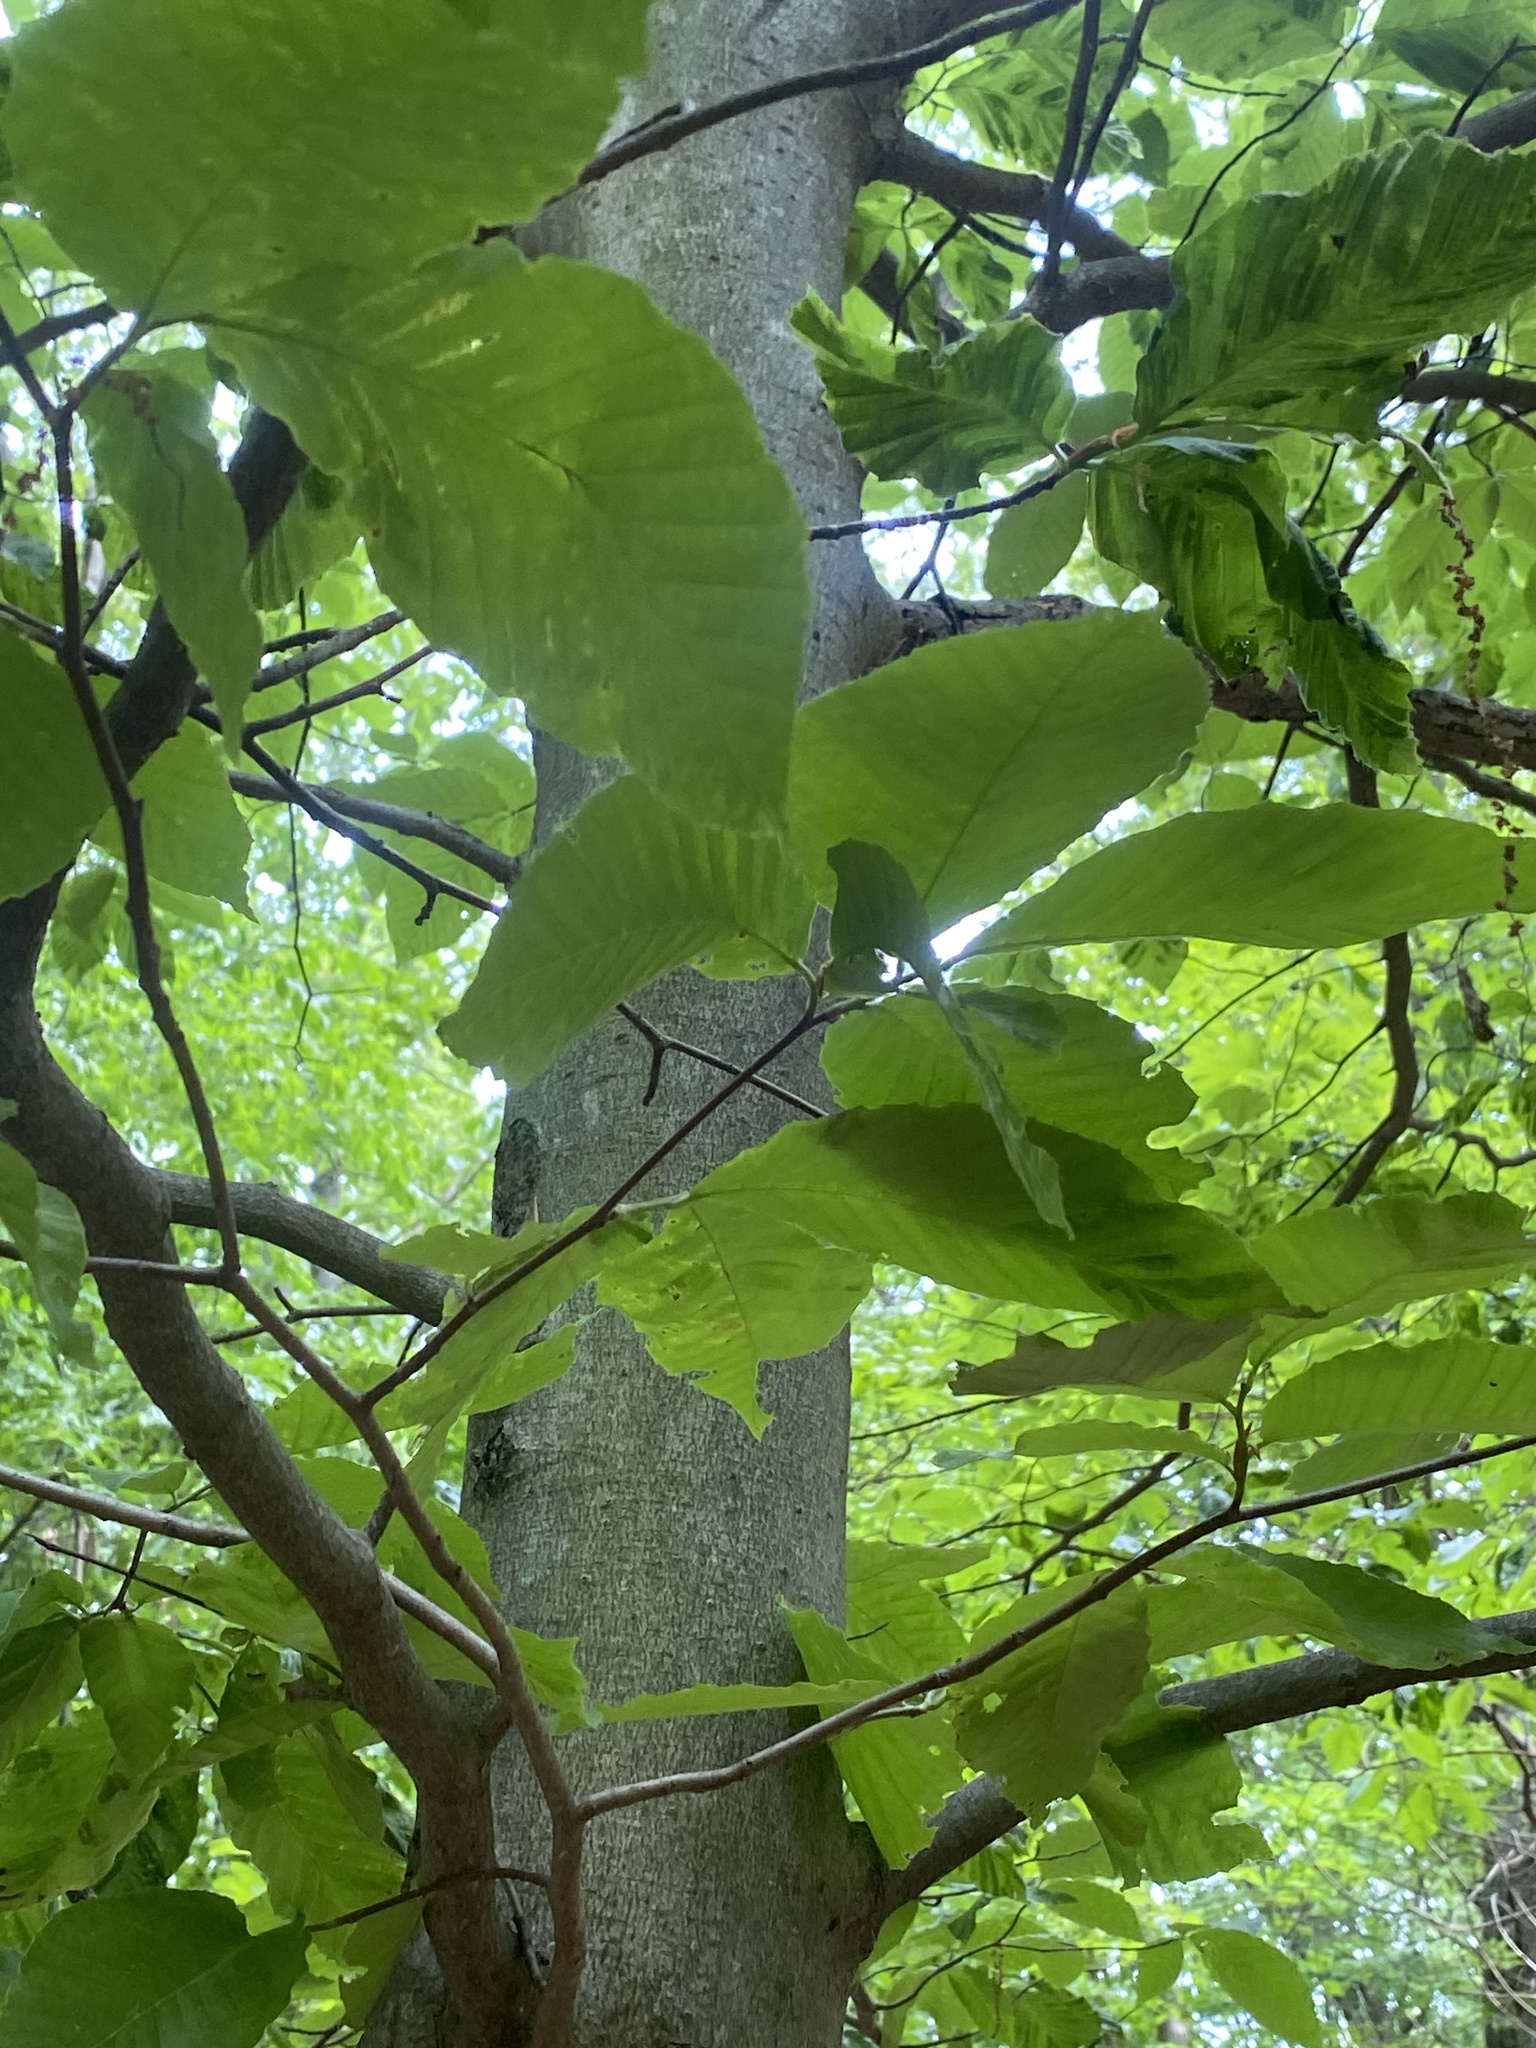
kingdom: Plantae
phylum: Tracheophyta
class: Magnoliopsida
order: Fagales
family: Fagaceae
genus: Fagus
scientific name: Fagus grandifolia
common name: American beech
